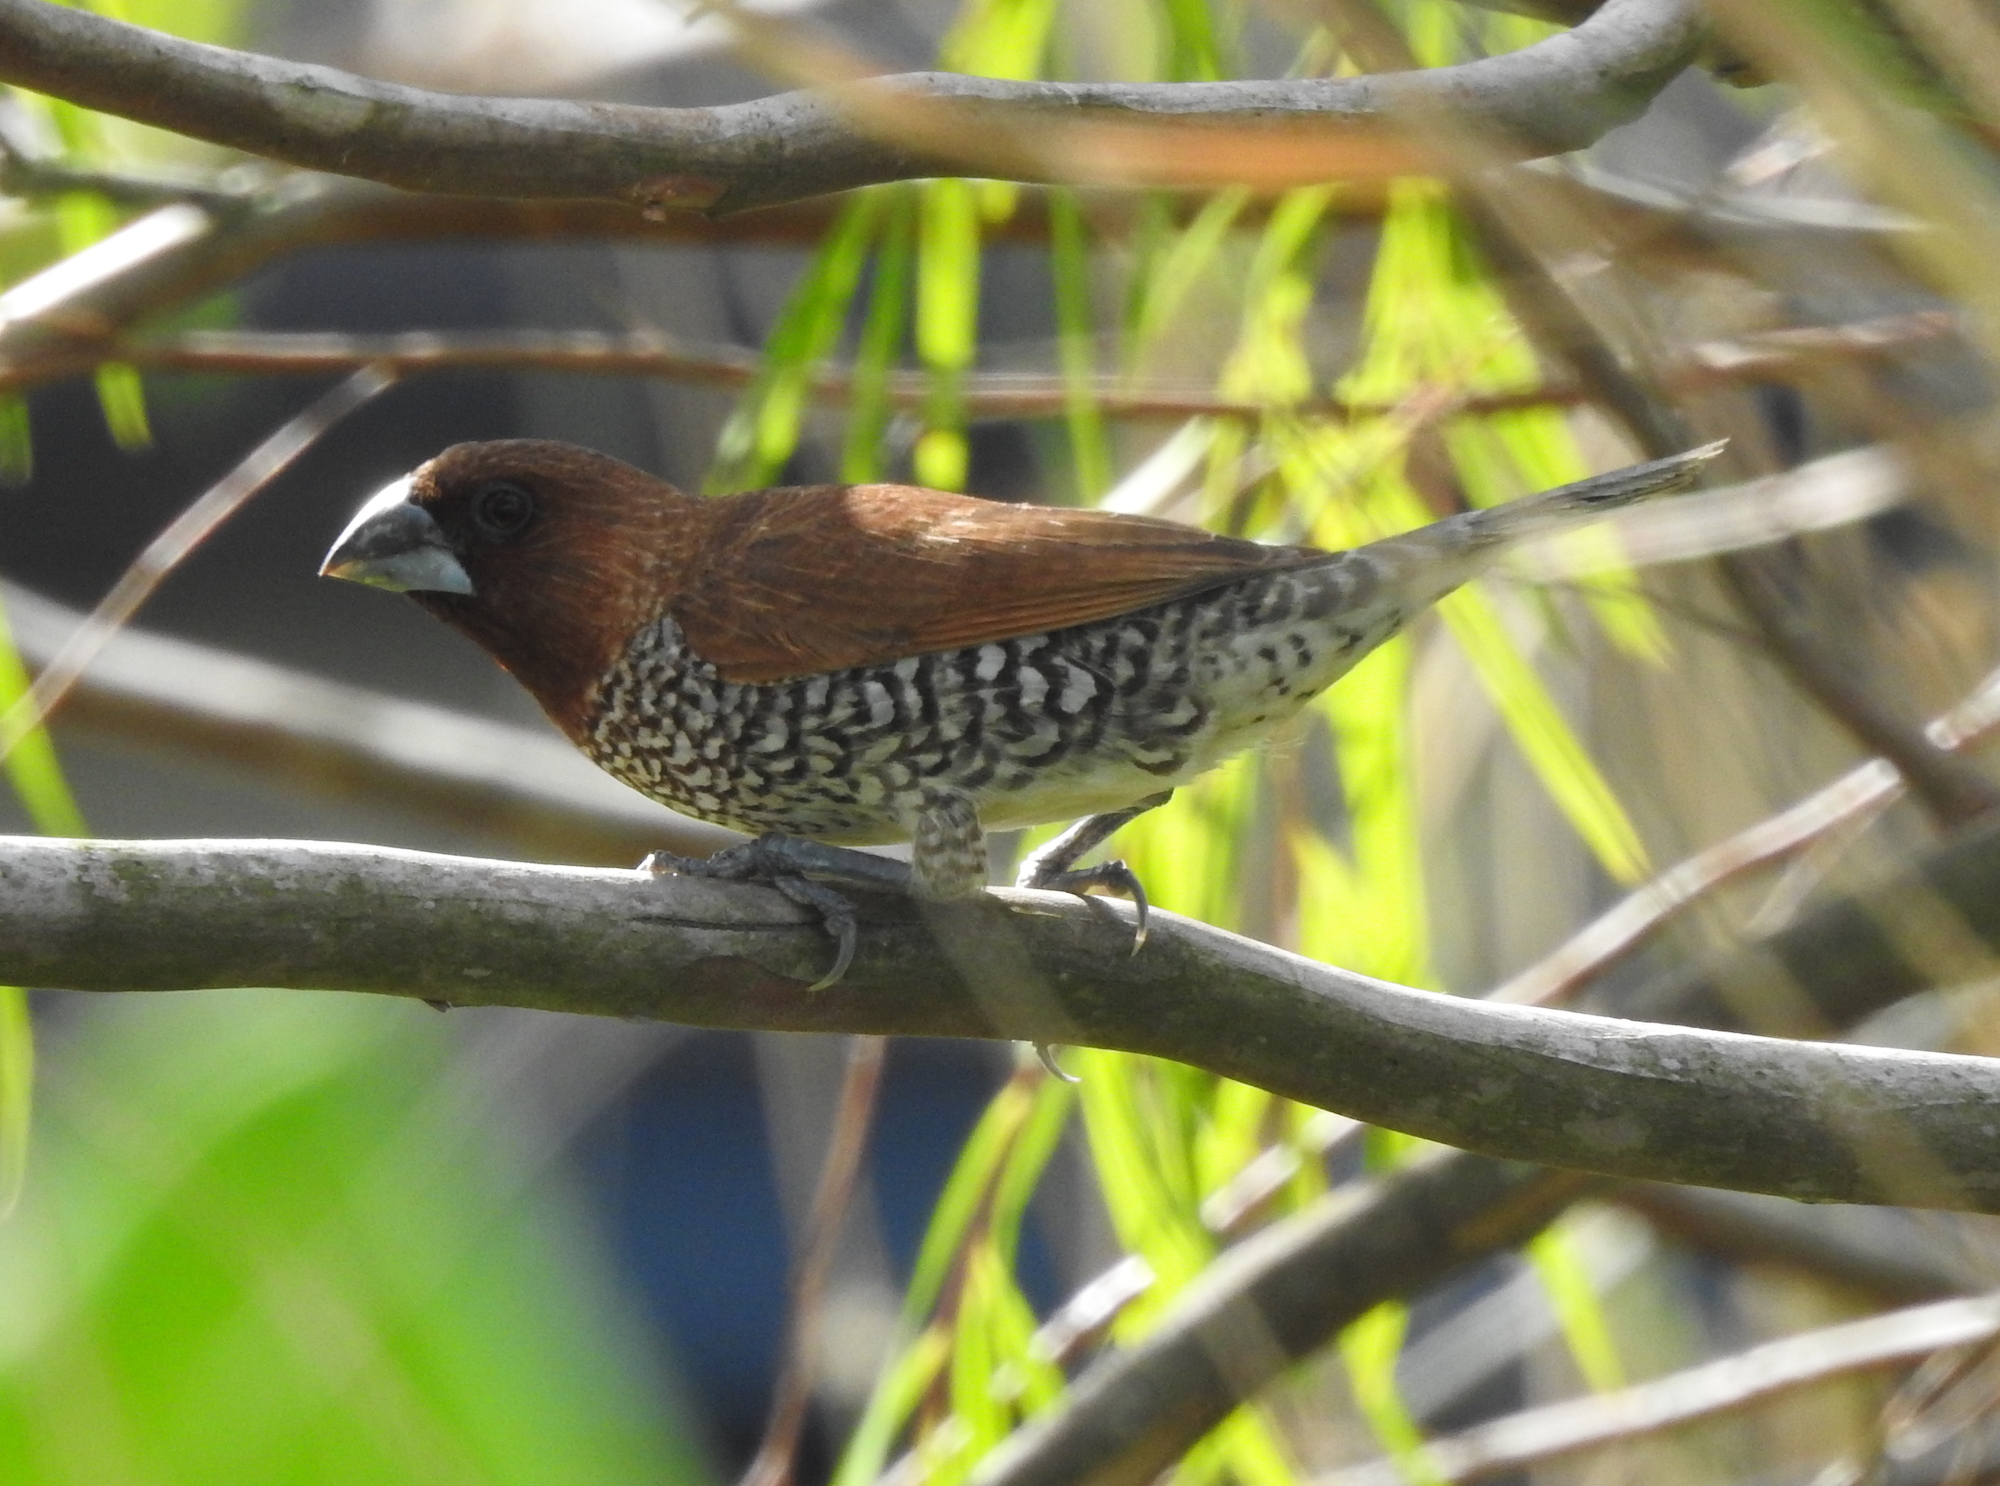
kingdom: Animalia
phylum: Chordata
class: Aves
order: Passeriformes
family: Estrildidae
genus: Lonchura
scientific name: Lonchura punctulata
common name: Scaly-breasted munia
